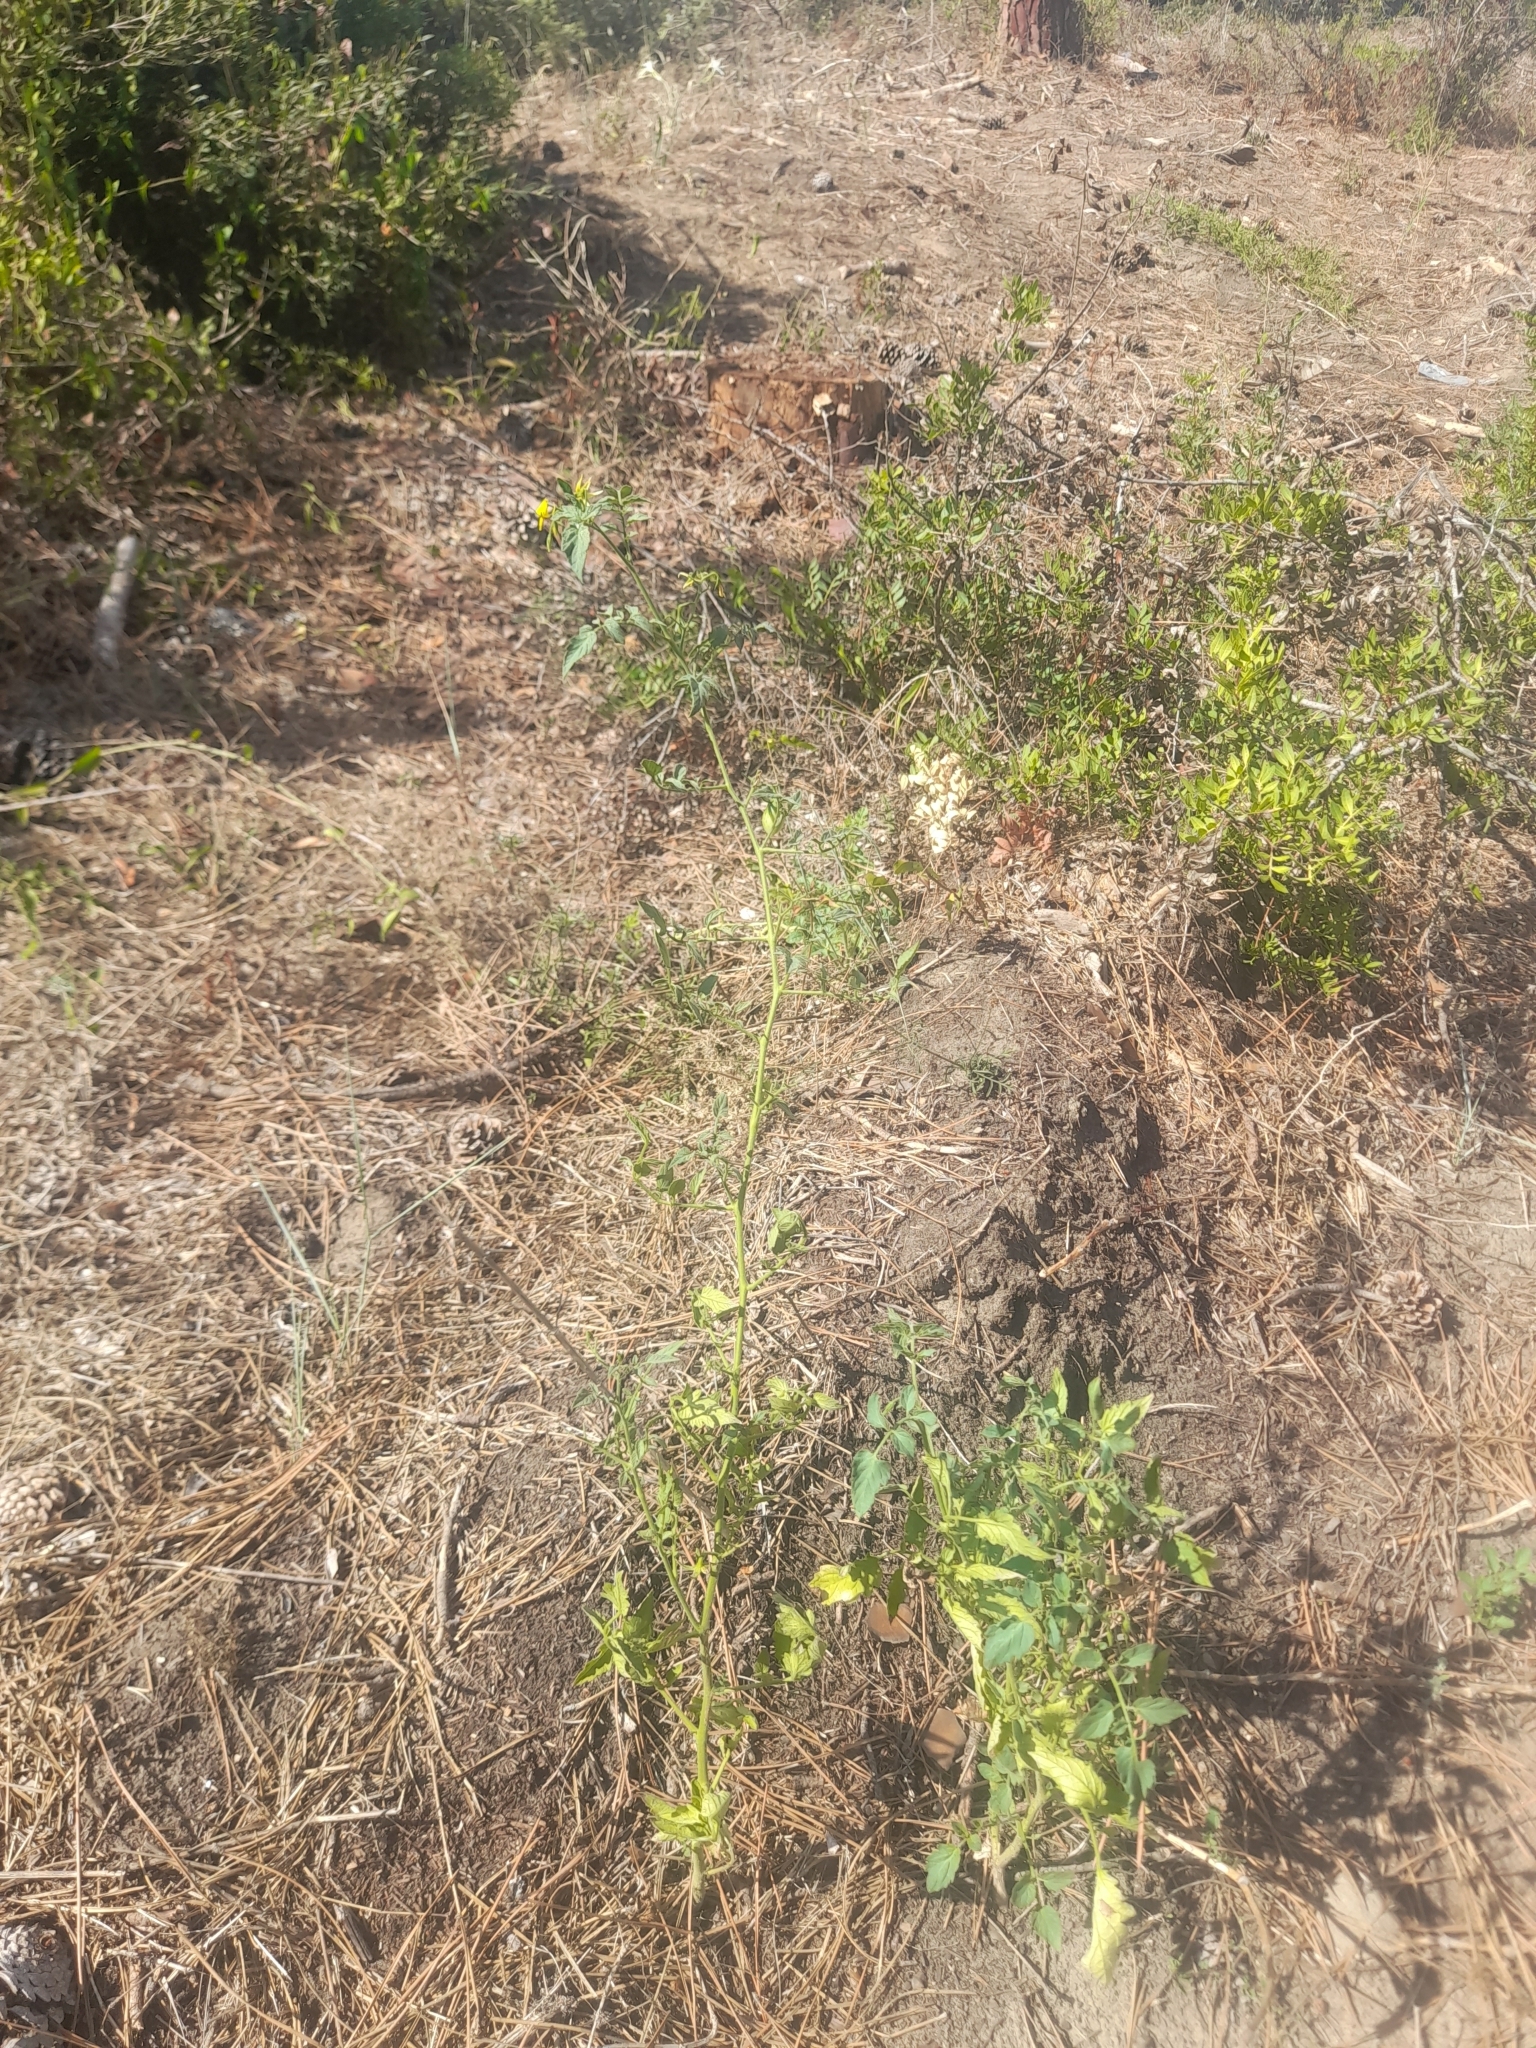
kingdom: Plantae
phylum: Tracheophyta
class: Magnoliopsida
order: Solanales
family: Solanaceae
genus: Solanum
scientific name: Solanum lycopersicum
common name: Garden tomato
